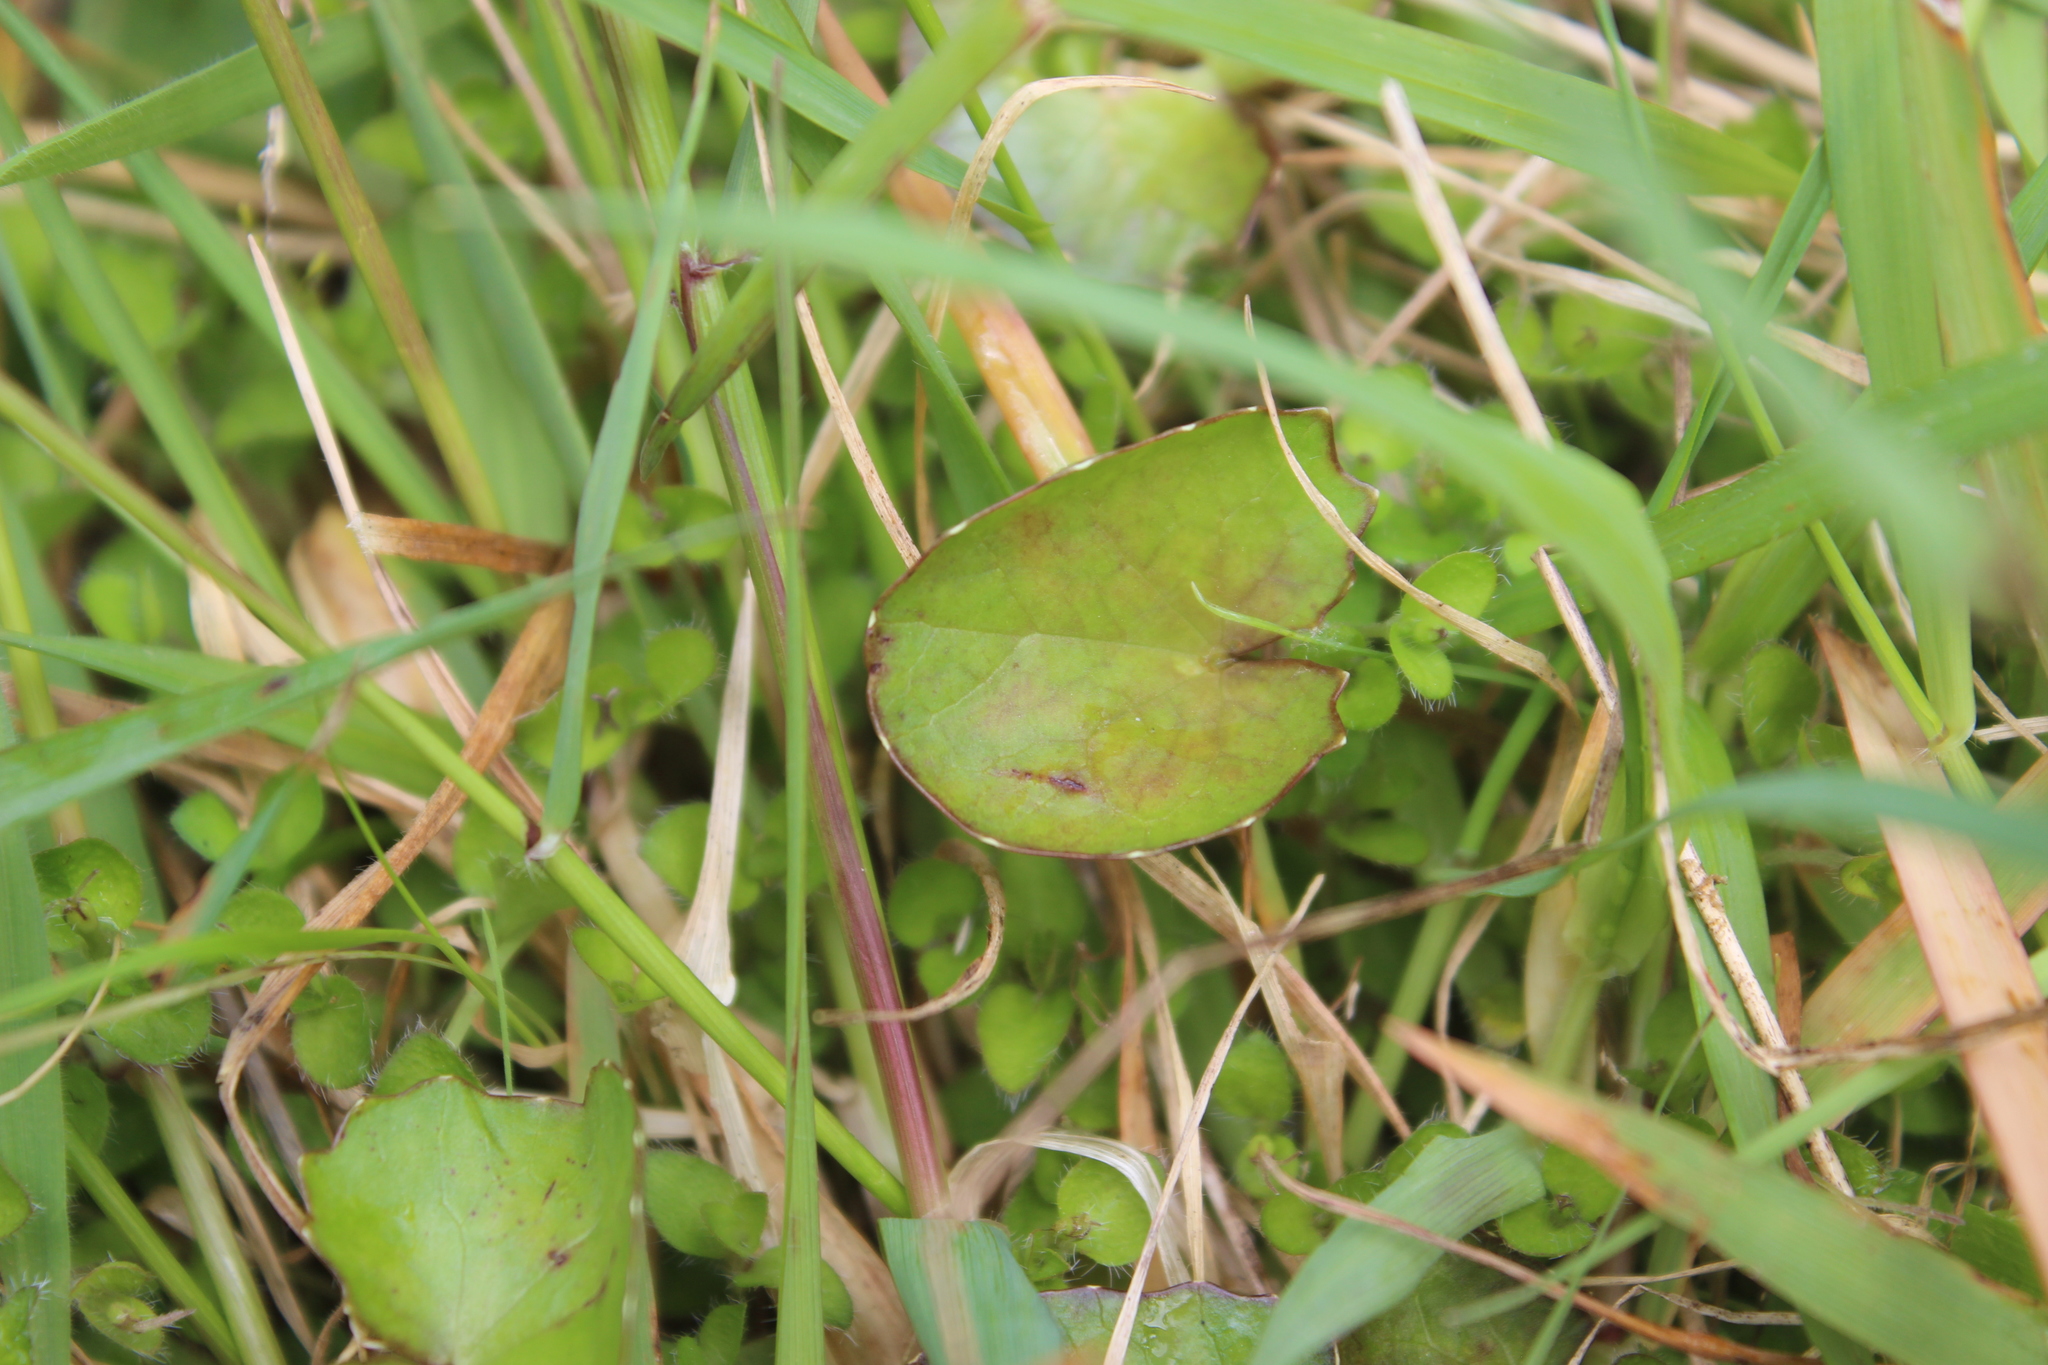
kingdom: Plantae
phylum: Tracheophyta
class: Magnoliopsida
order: Apiales
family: Apiaceae
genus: Centella
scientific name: Centella uniflora
